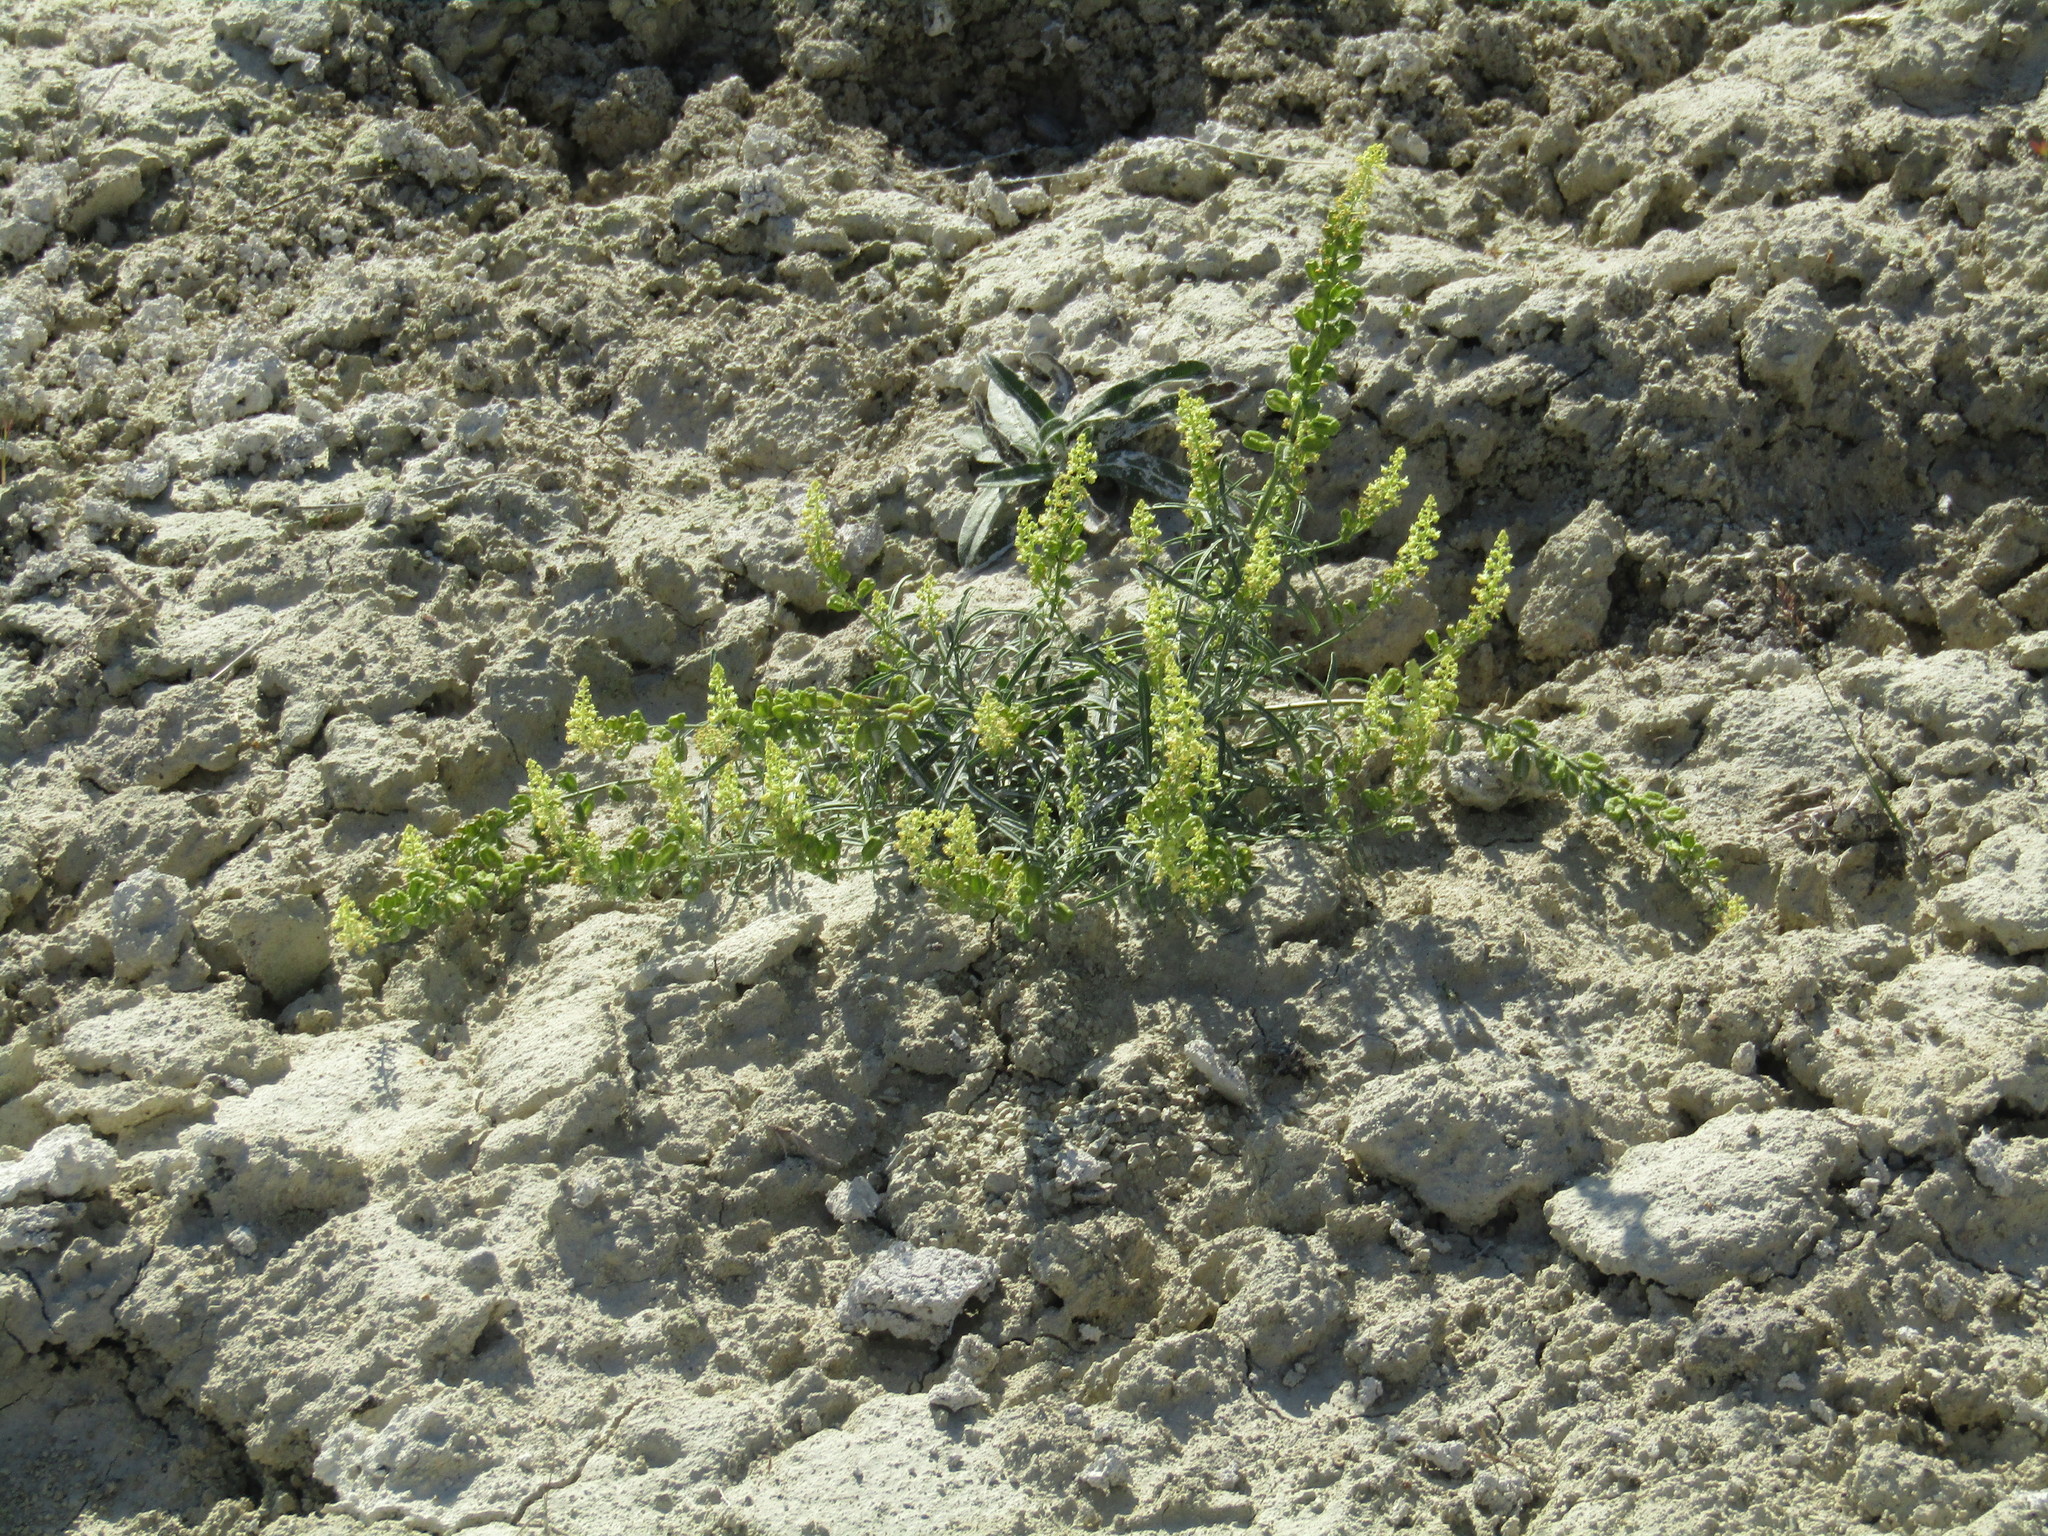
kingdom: Plantae
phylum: Tracheophyta
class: Magnoliopsida
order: Brassicales
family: Resedaceae
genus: Reseda
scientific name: Reseda lutea
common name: Wild mignonette
